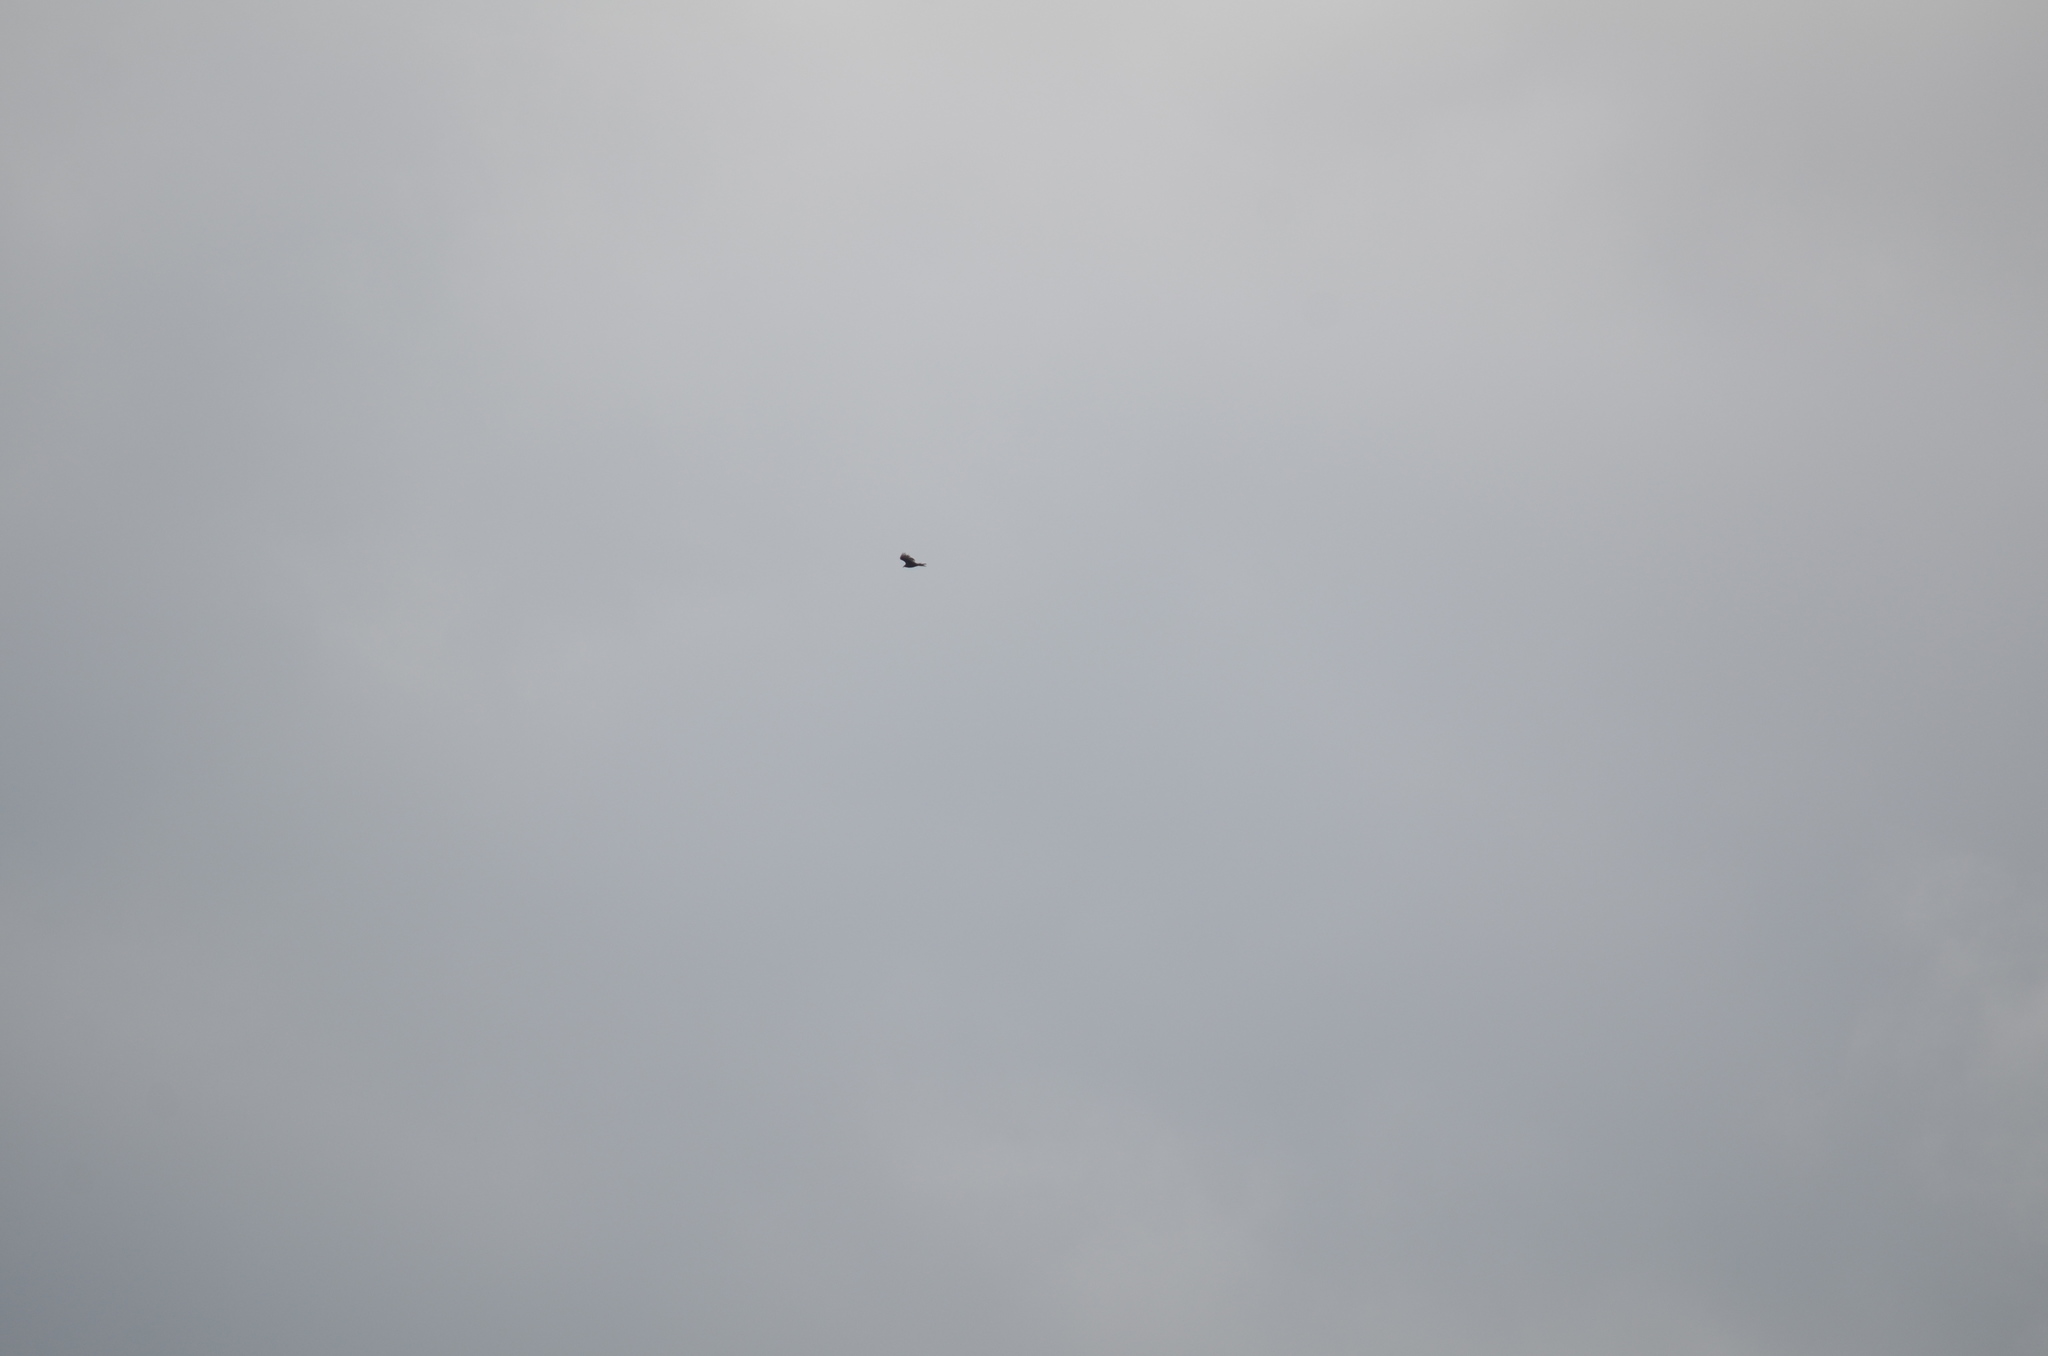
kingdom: Animalia
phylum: Chordata
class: Aves
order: Accipitriformes
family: Cathartidae
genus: Cathartes
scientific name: Cathartes aura
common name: Turkey vulture
